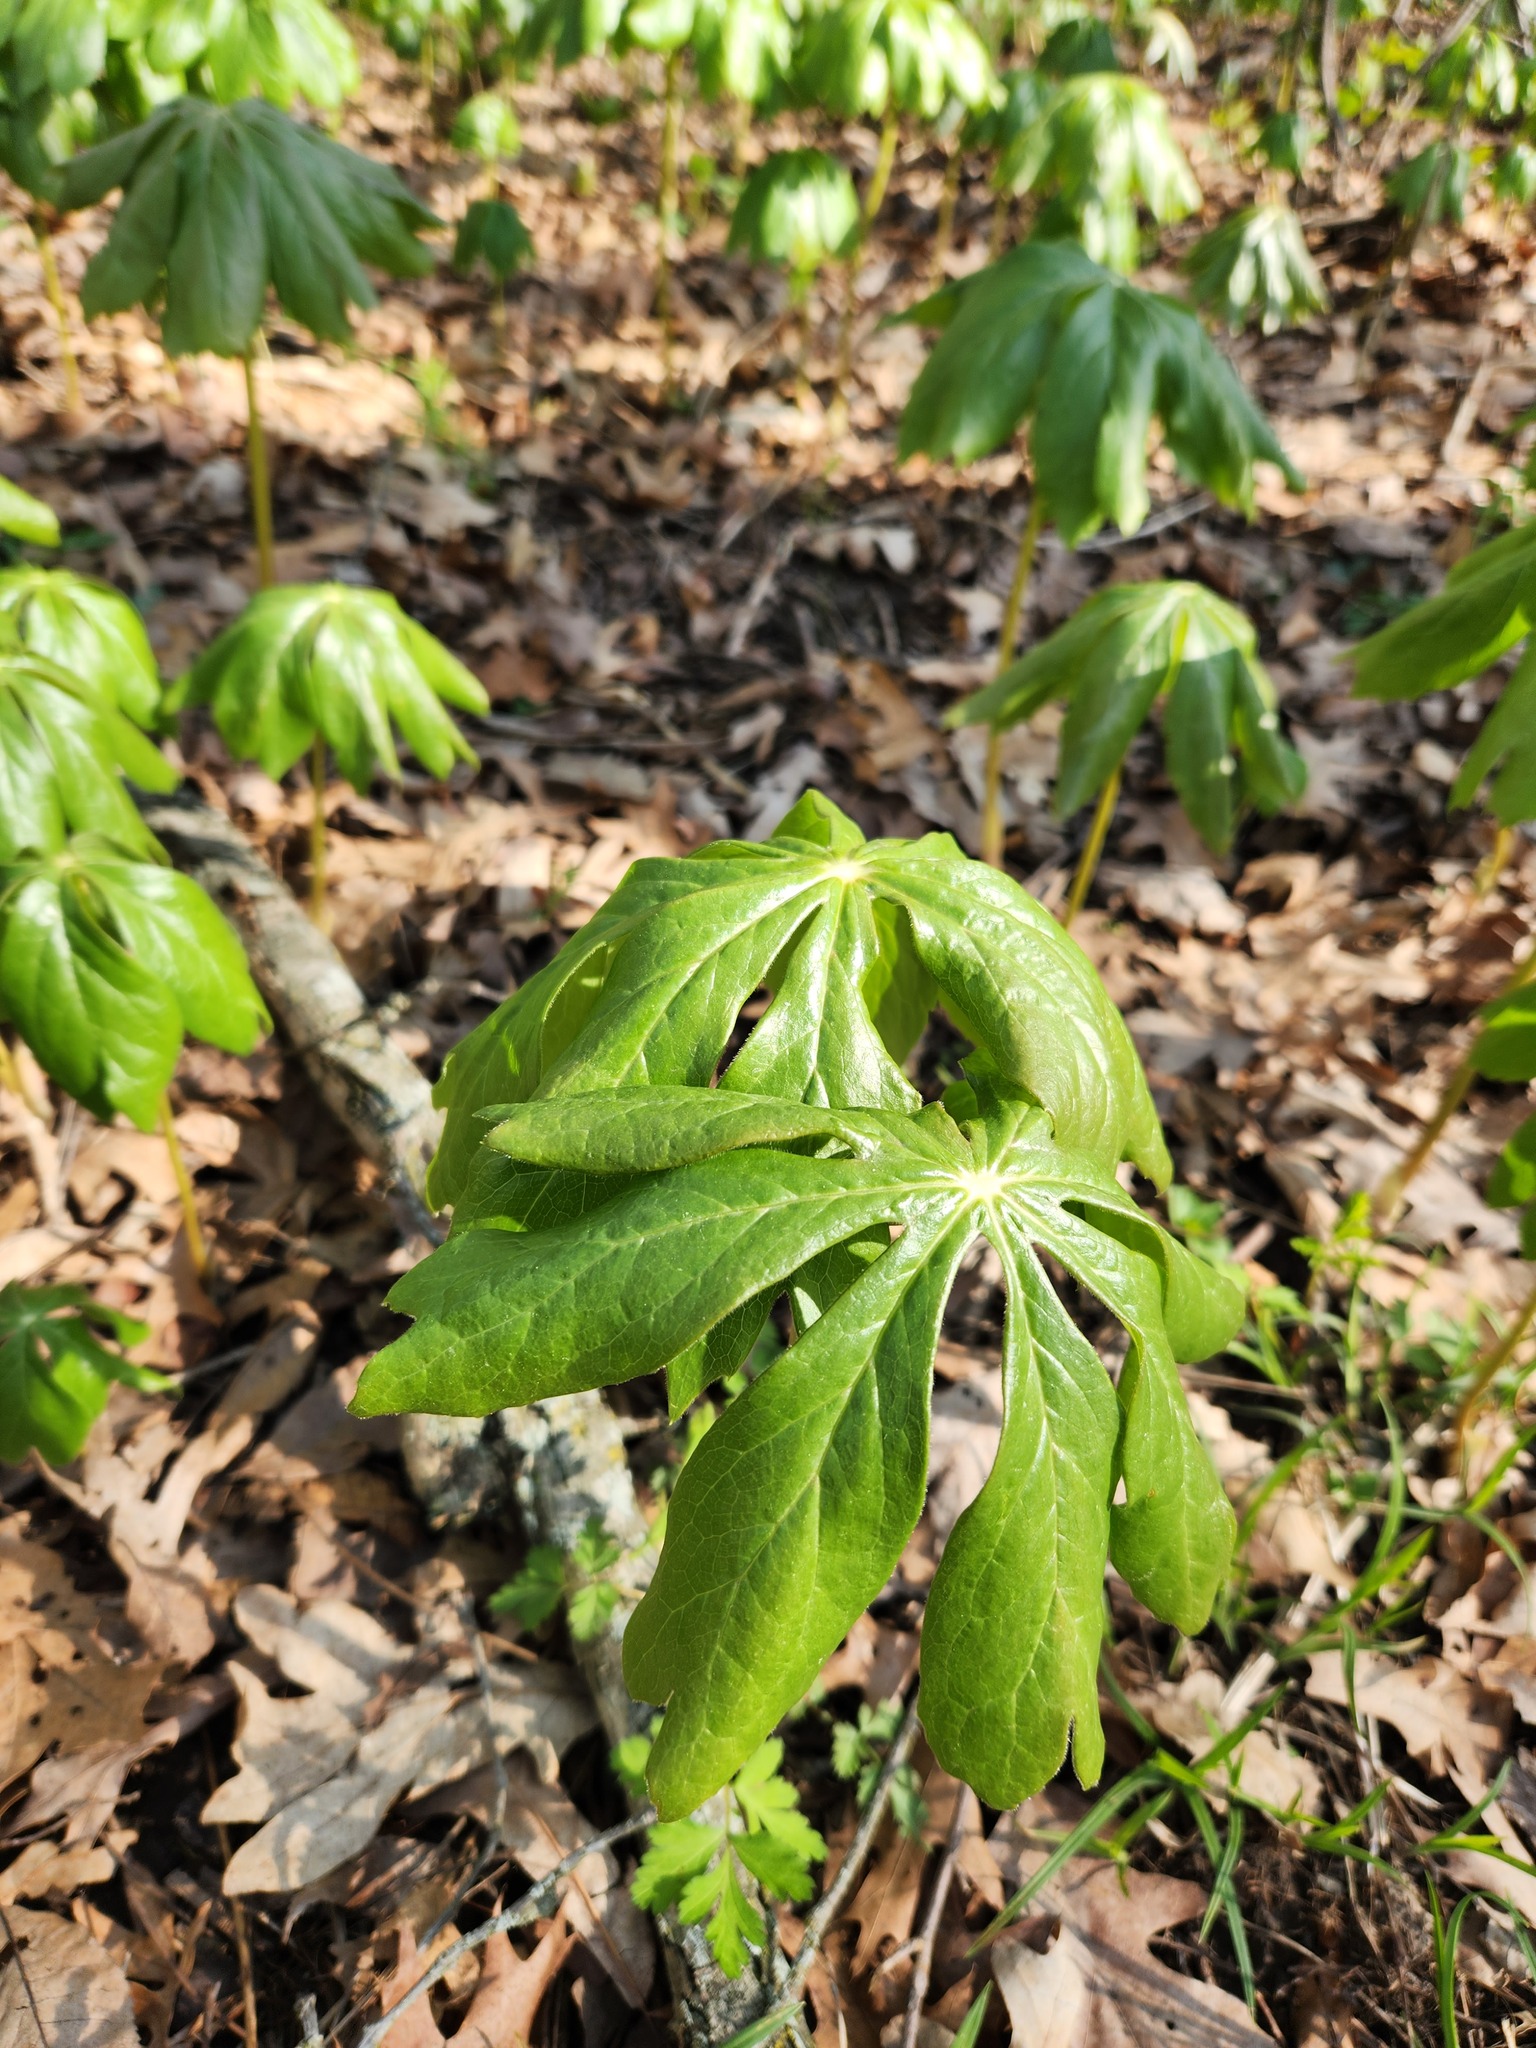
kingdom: Plantae
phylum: Tracheophyta
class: Magnoliopsida
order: Ranunculales
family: Berberidaceae
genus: Podophyllum
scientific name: Podophyllum peltatum
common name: Wild mandrake
